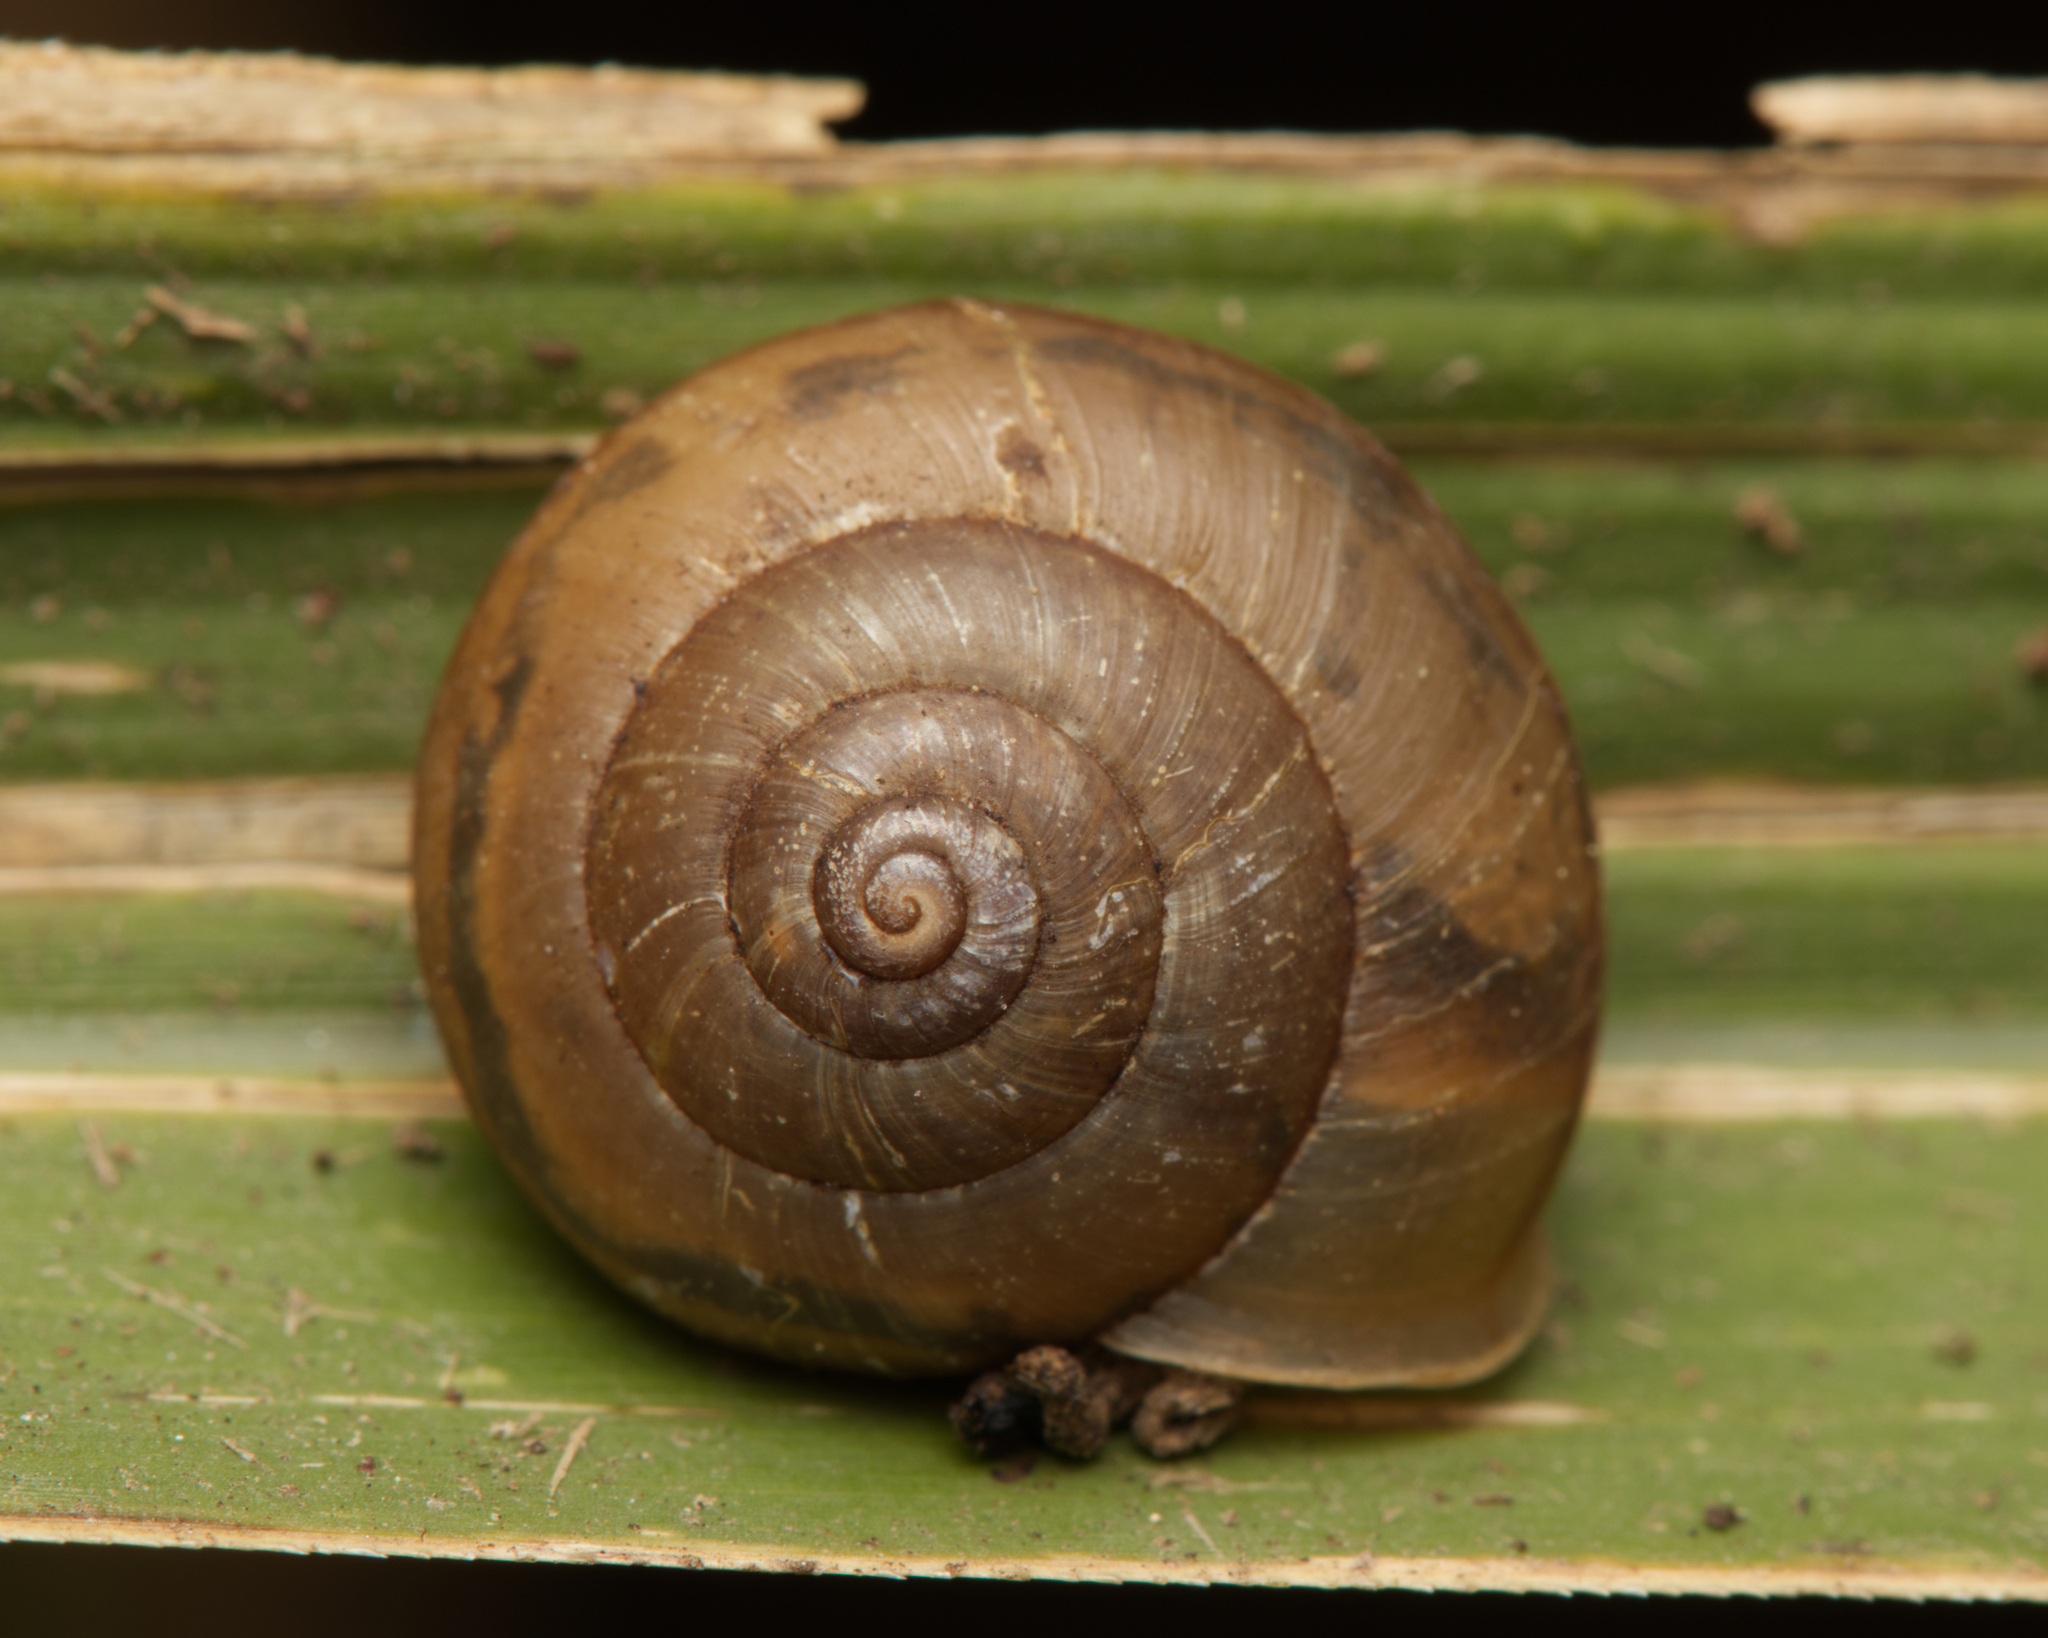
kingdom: Animalia
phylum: Mollusca
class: Gastropoda
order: Stylommatophora
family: Camaenidae
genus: Bradybaena
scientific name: Bradybaena similaris
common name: Asian trampsnail
